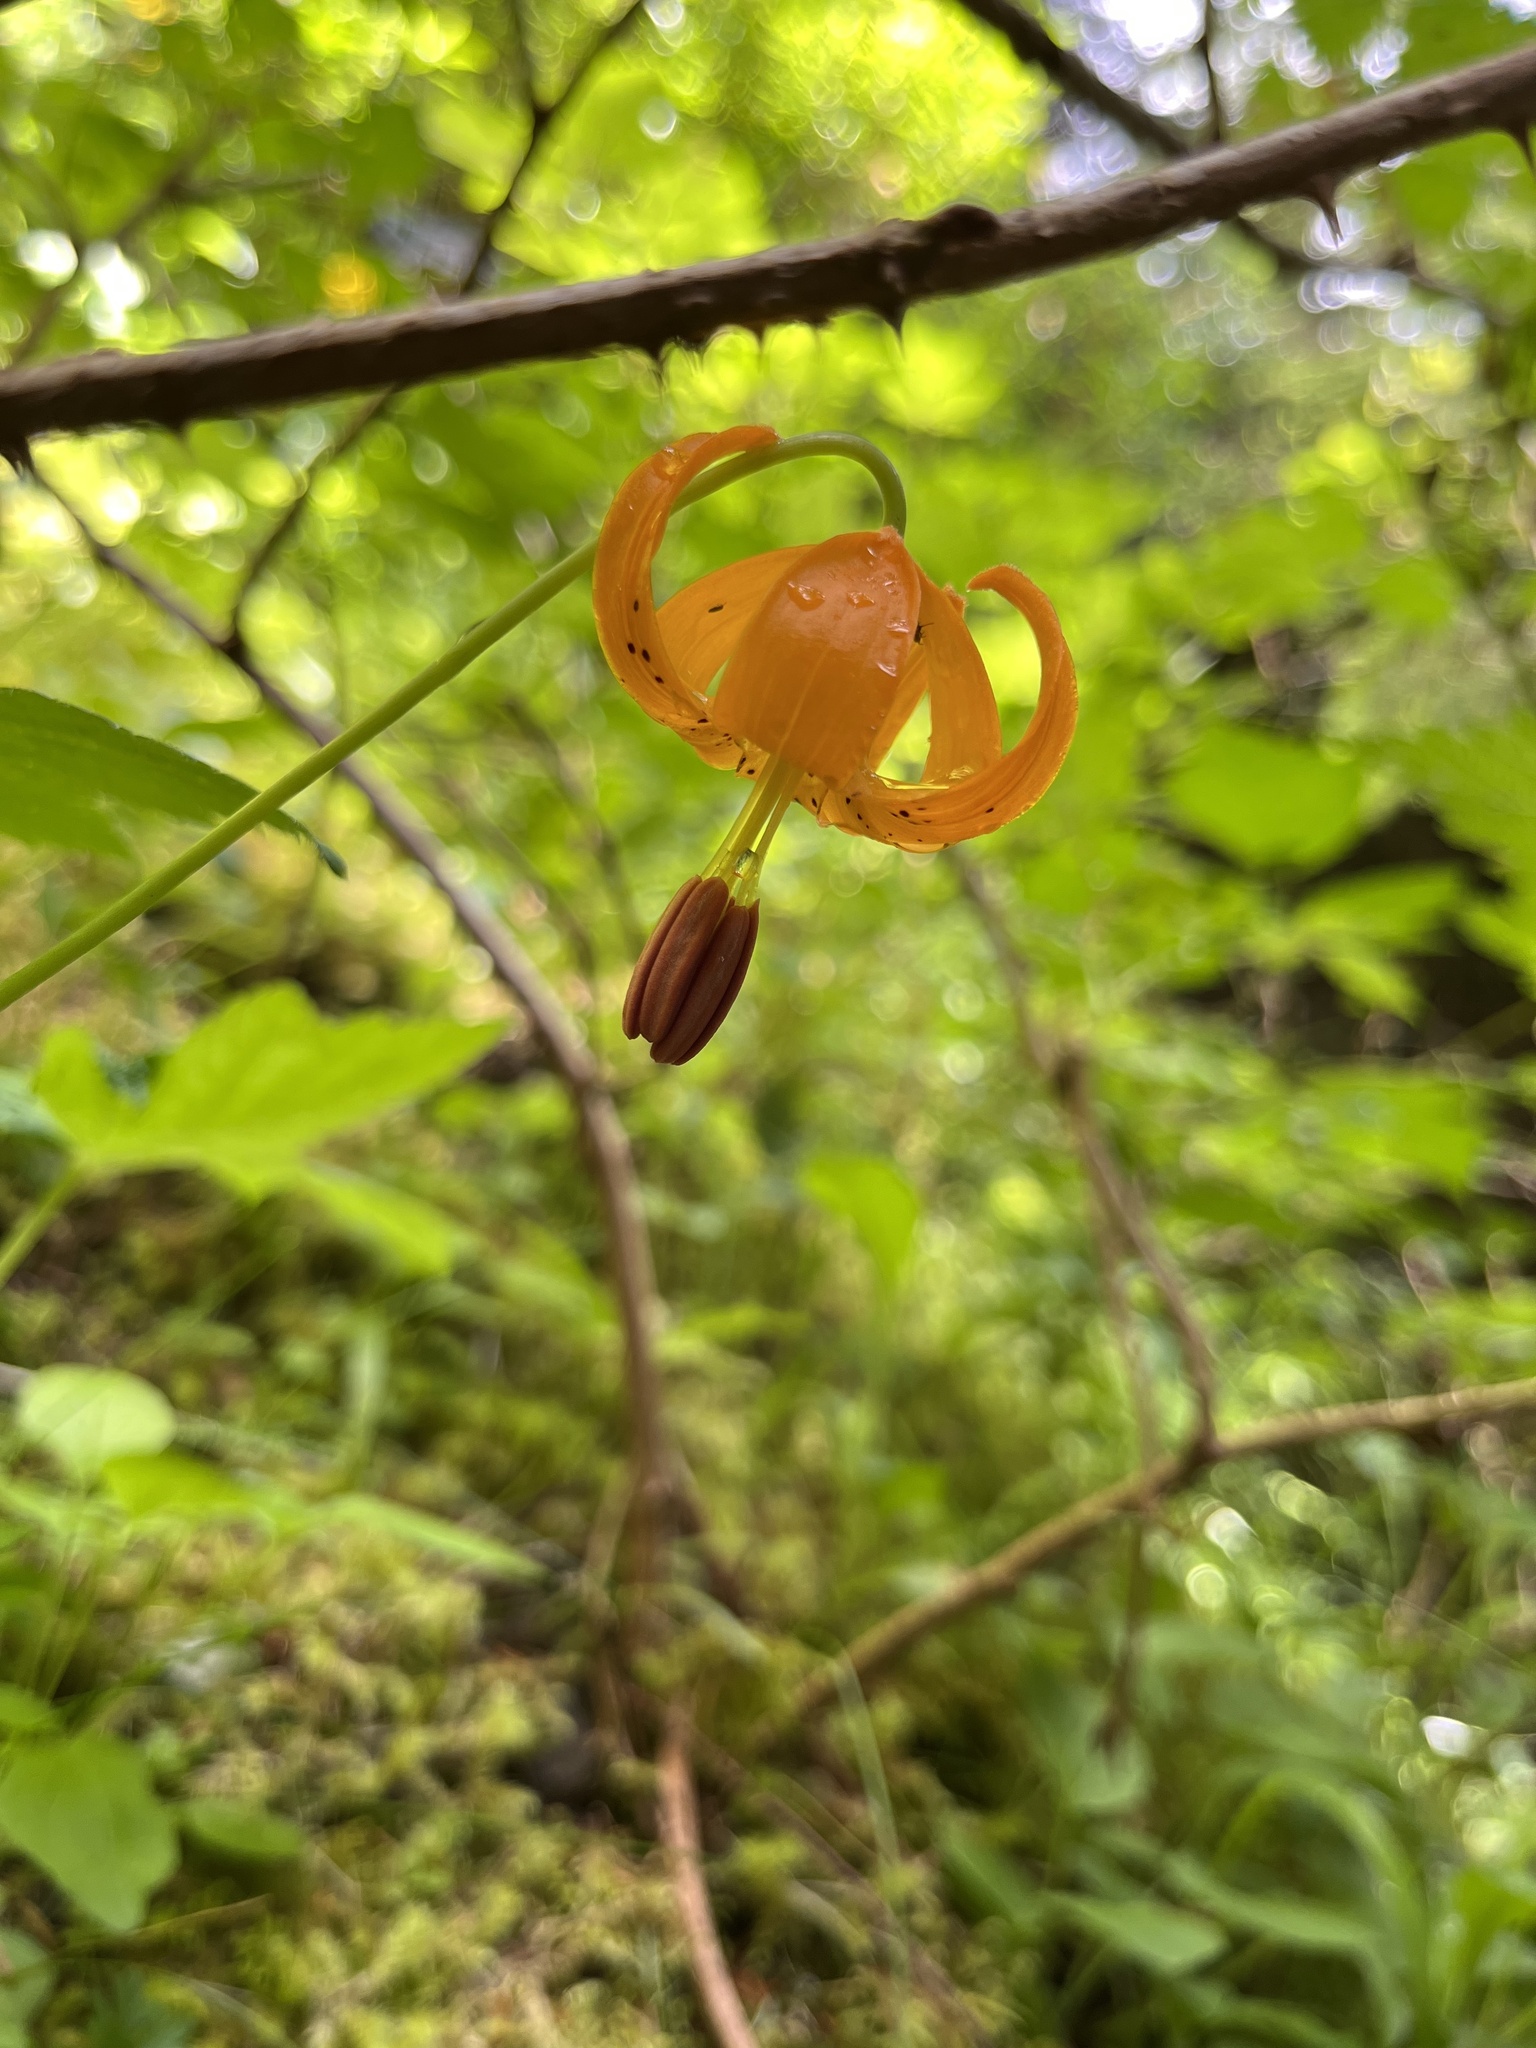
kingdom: Plantae
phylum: Tracheophyta
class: Liliopsida
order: Liliales
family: Liliaceae
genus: Lilium
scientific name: Lilium columbianum
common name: Columbia lily
